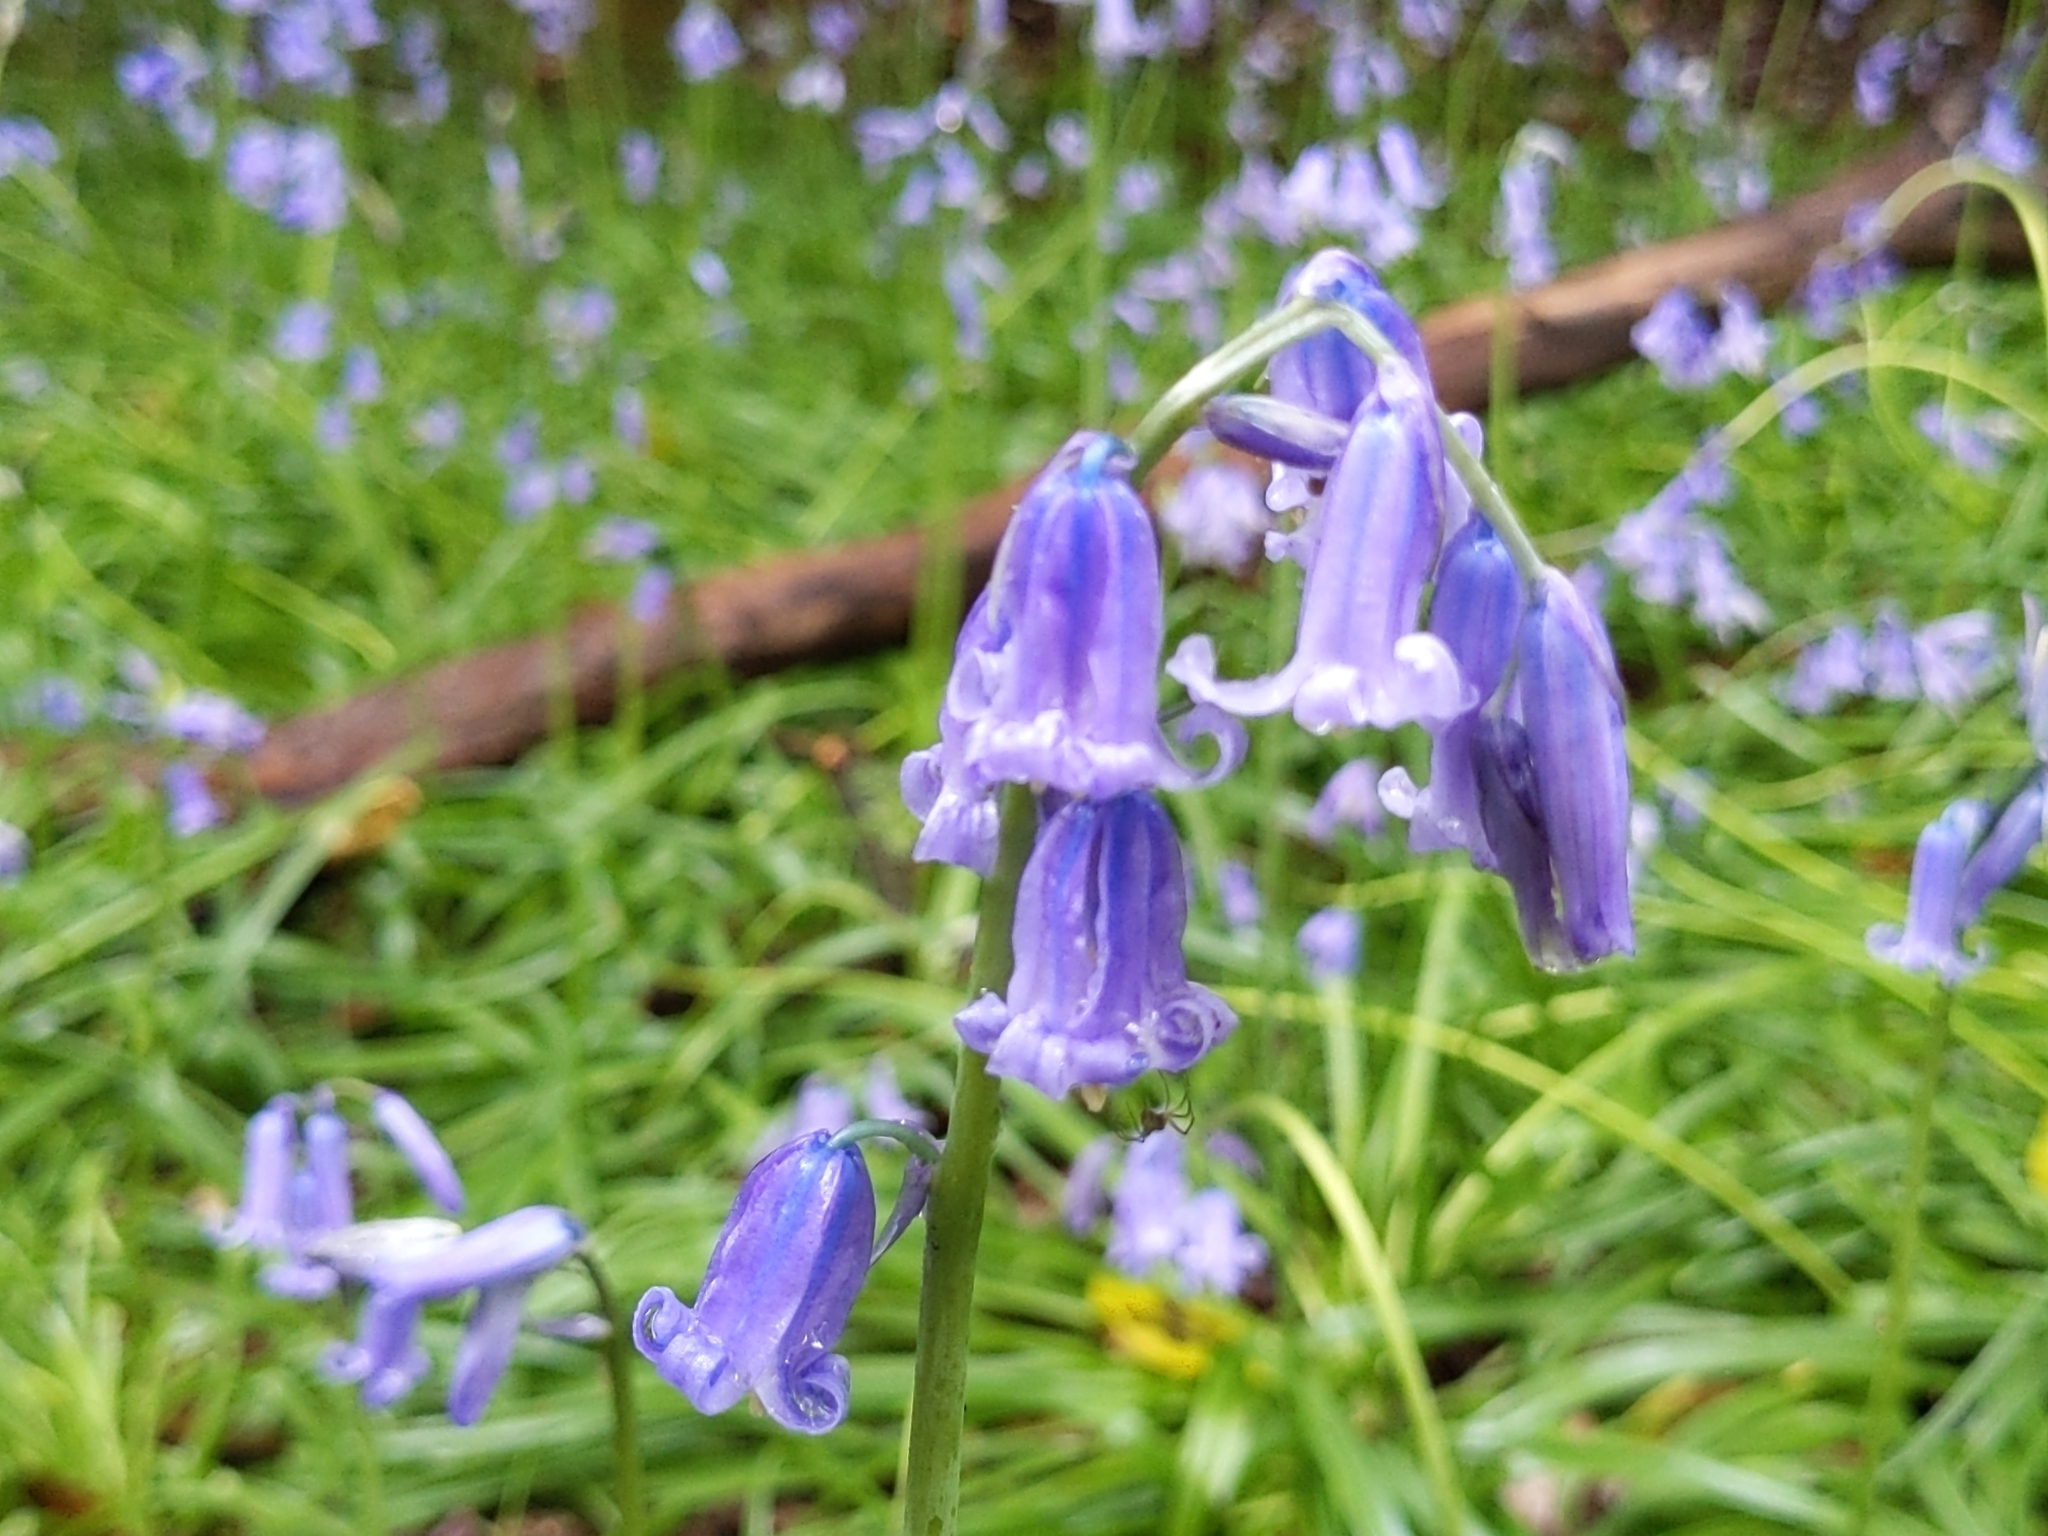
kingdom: Plantae
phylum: Tracheophyta
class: Liliopsida
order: Asparagales
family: Asparagaceae
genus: Hyacinthoides
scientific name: Hyacinthoides non-scripta
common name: Bluebell
